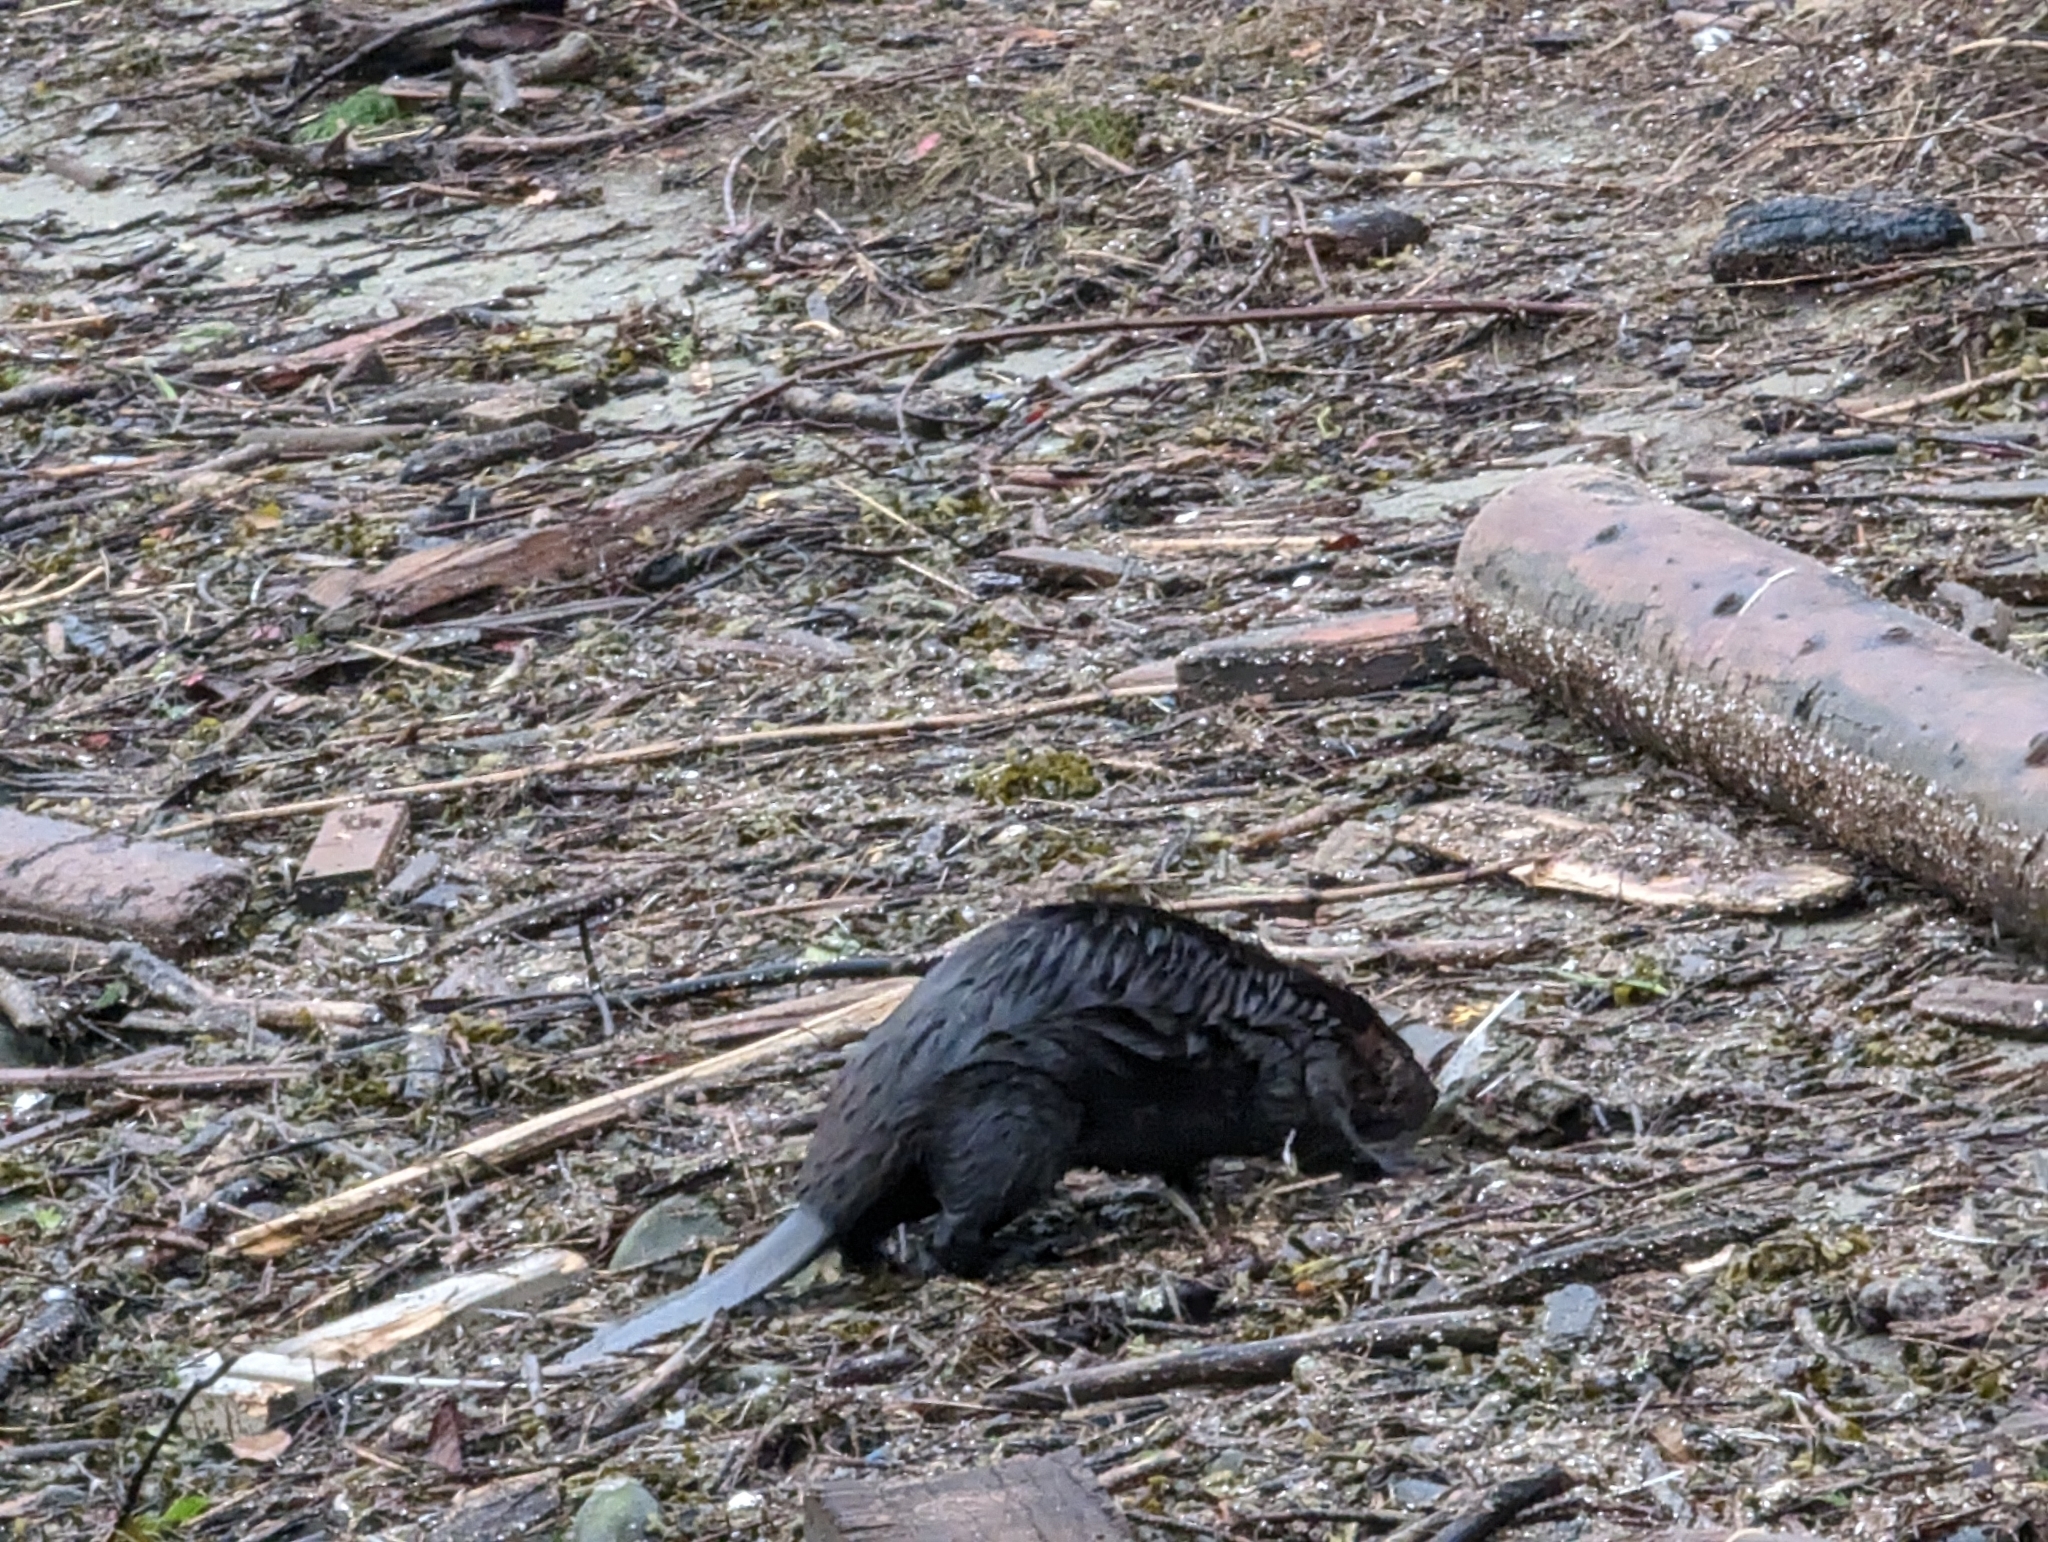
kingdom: Animalia
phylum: Chordata
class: Mammalia
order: Rodentia
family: Castoridae
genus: Castor
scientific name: Castor canadensis
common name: American beaver
